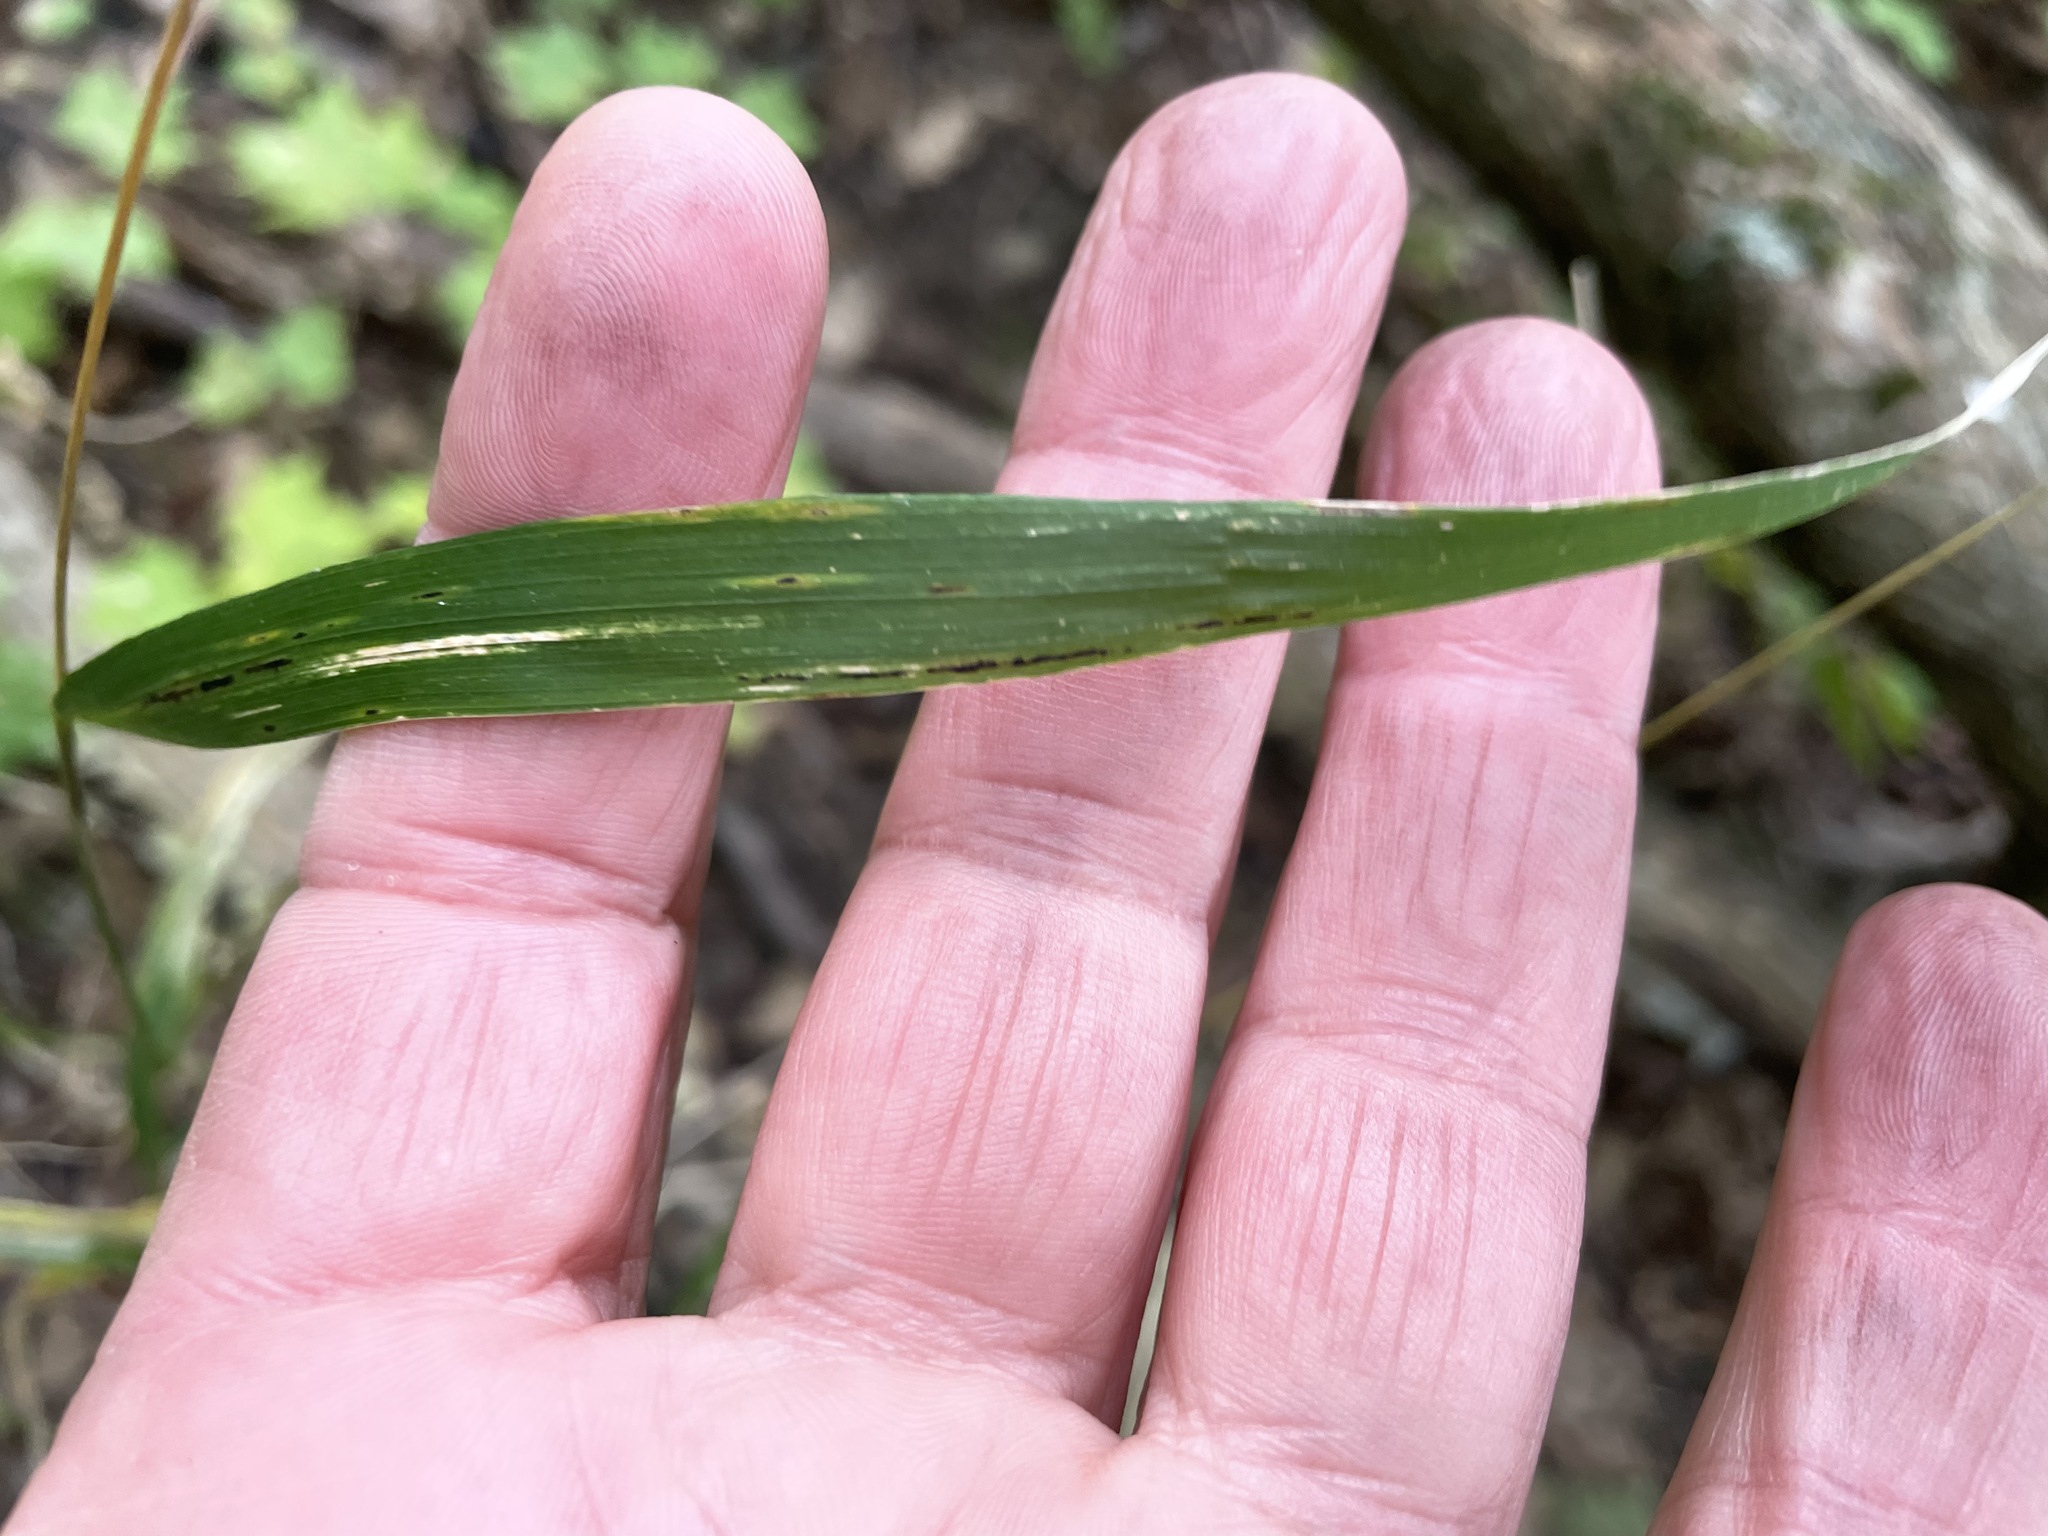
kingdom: Plantae
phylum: Tracheophyta
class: Liliopsida
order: Poales
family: Poaceae
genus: Elymus
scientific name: Elymus hystrix
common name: Bottlebrush grass
